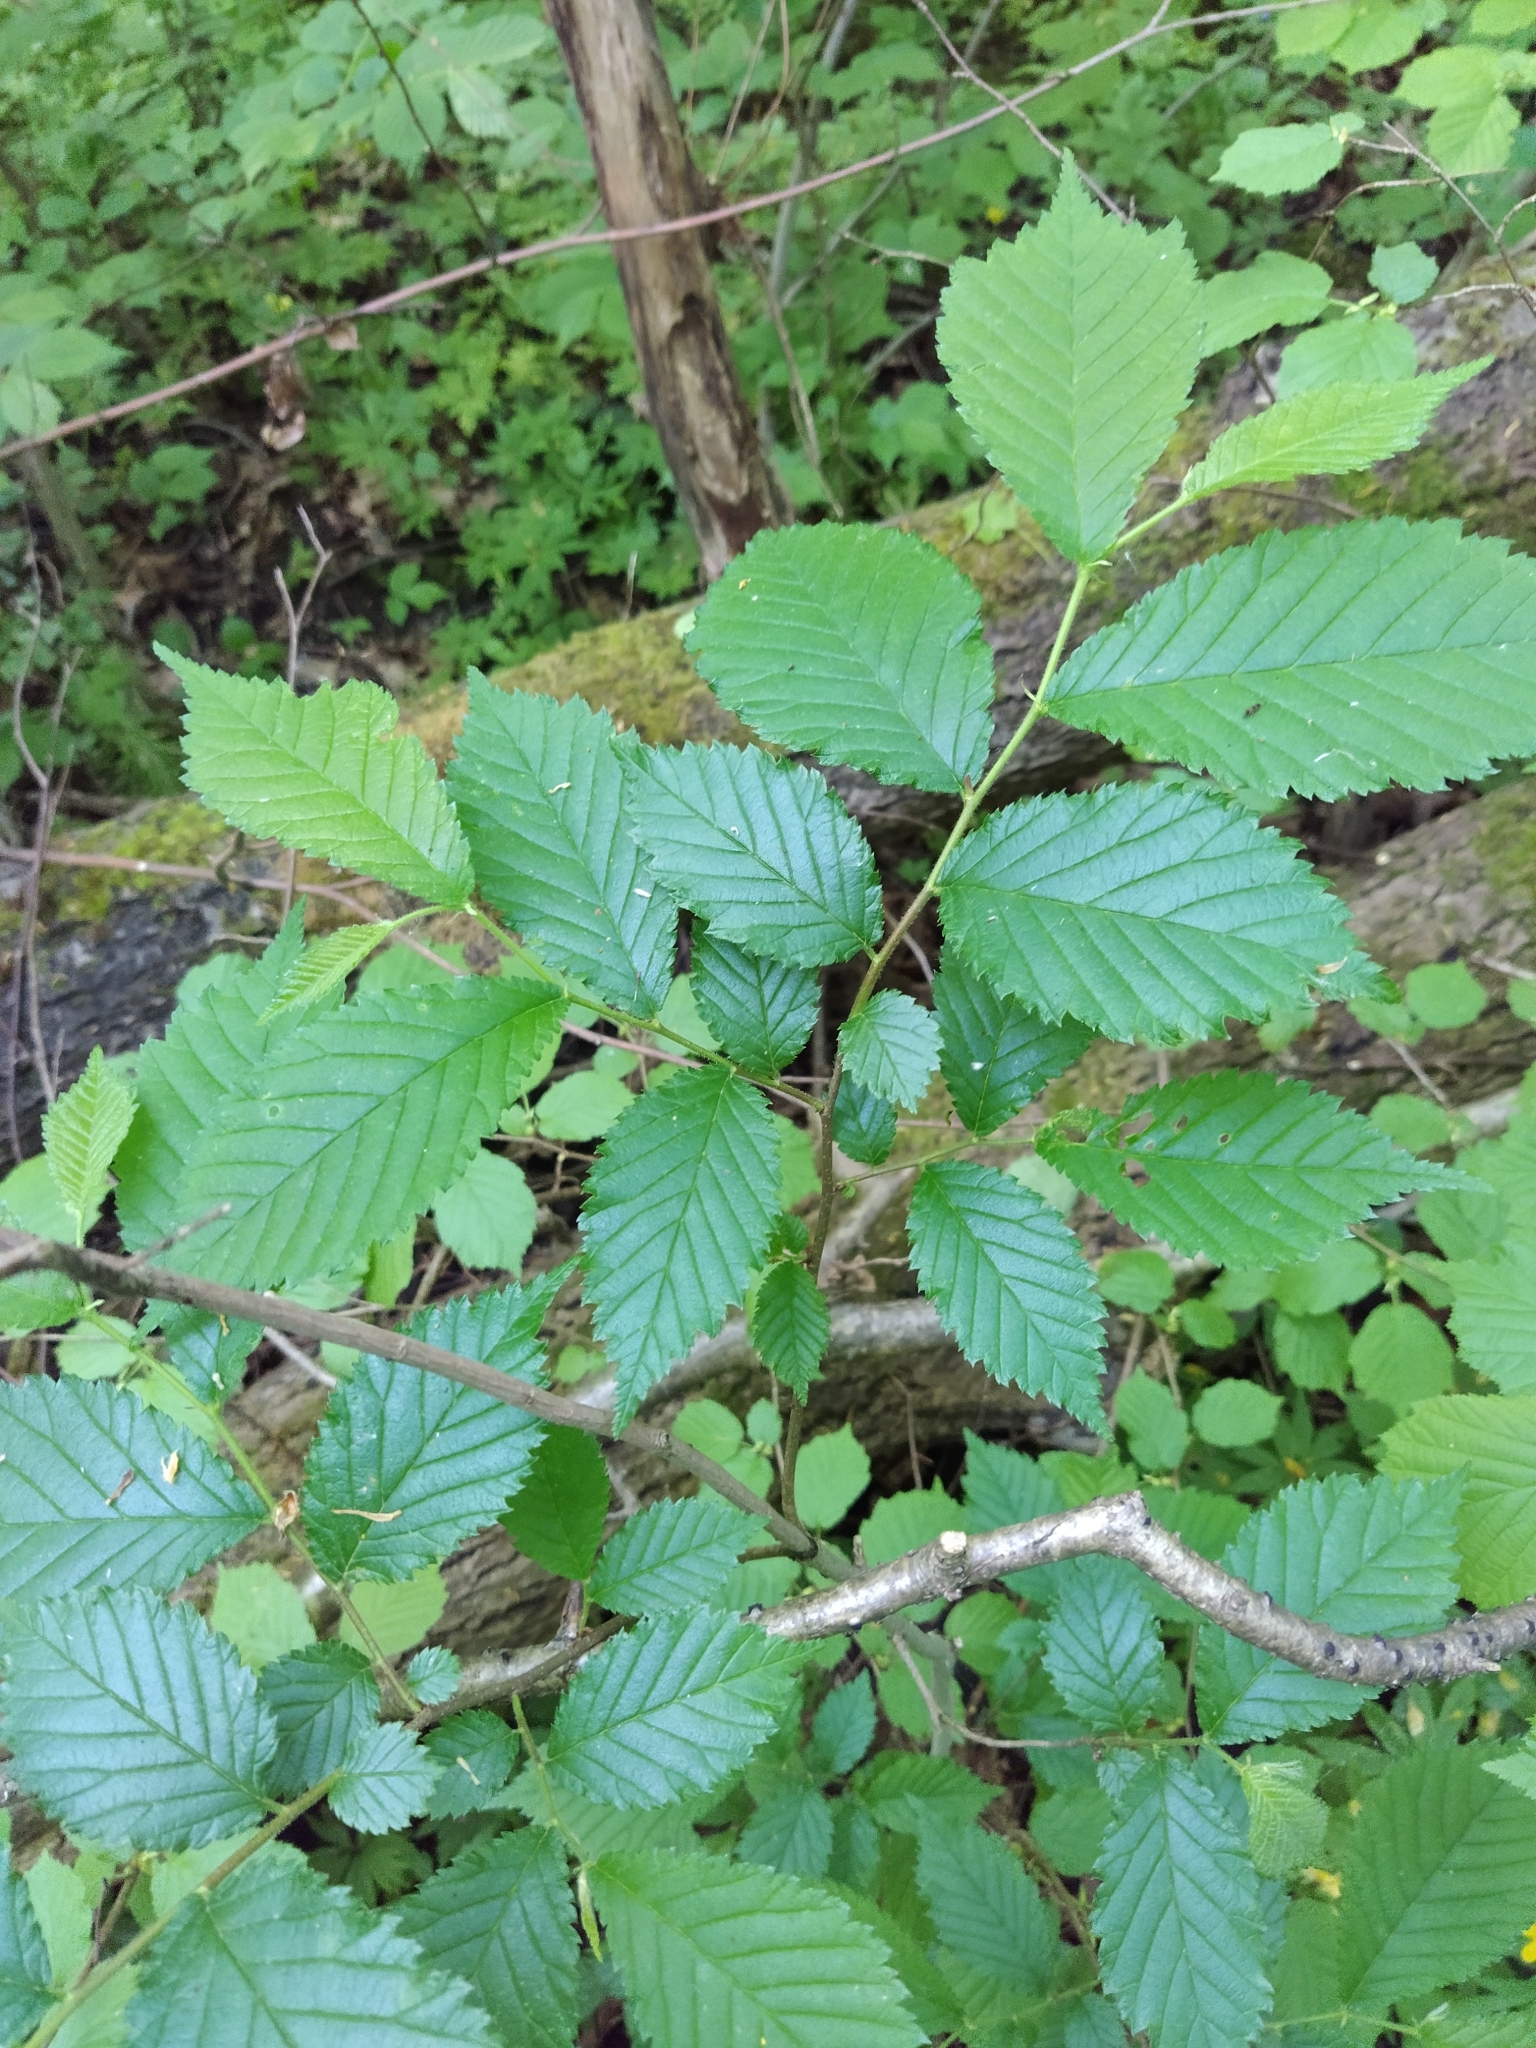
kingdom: Plantae
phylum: Tracheophyta
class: Magnoliopsida
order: Rosales
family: Ulmaceae
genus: Ulmus
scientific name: Ulmus glabra
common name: Wych elm
